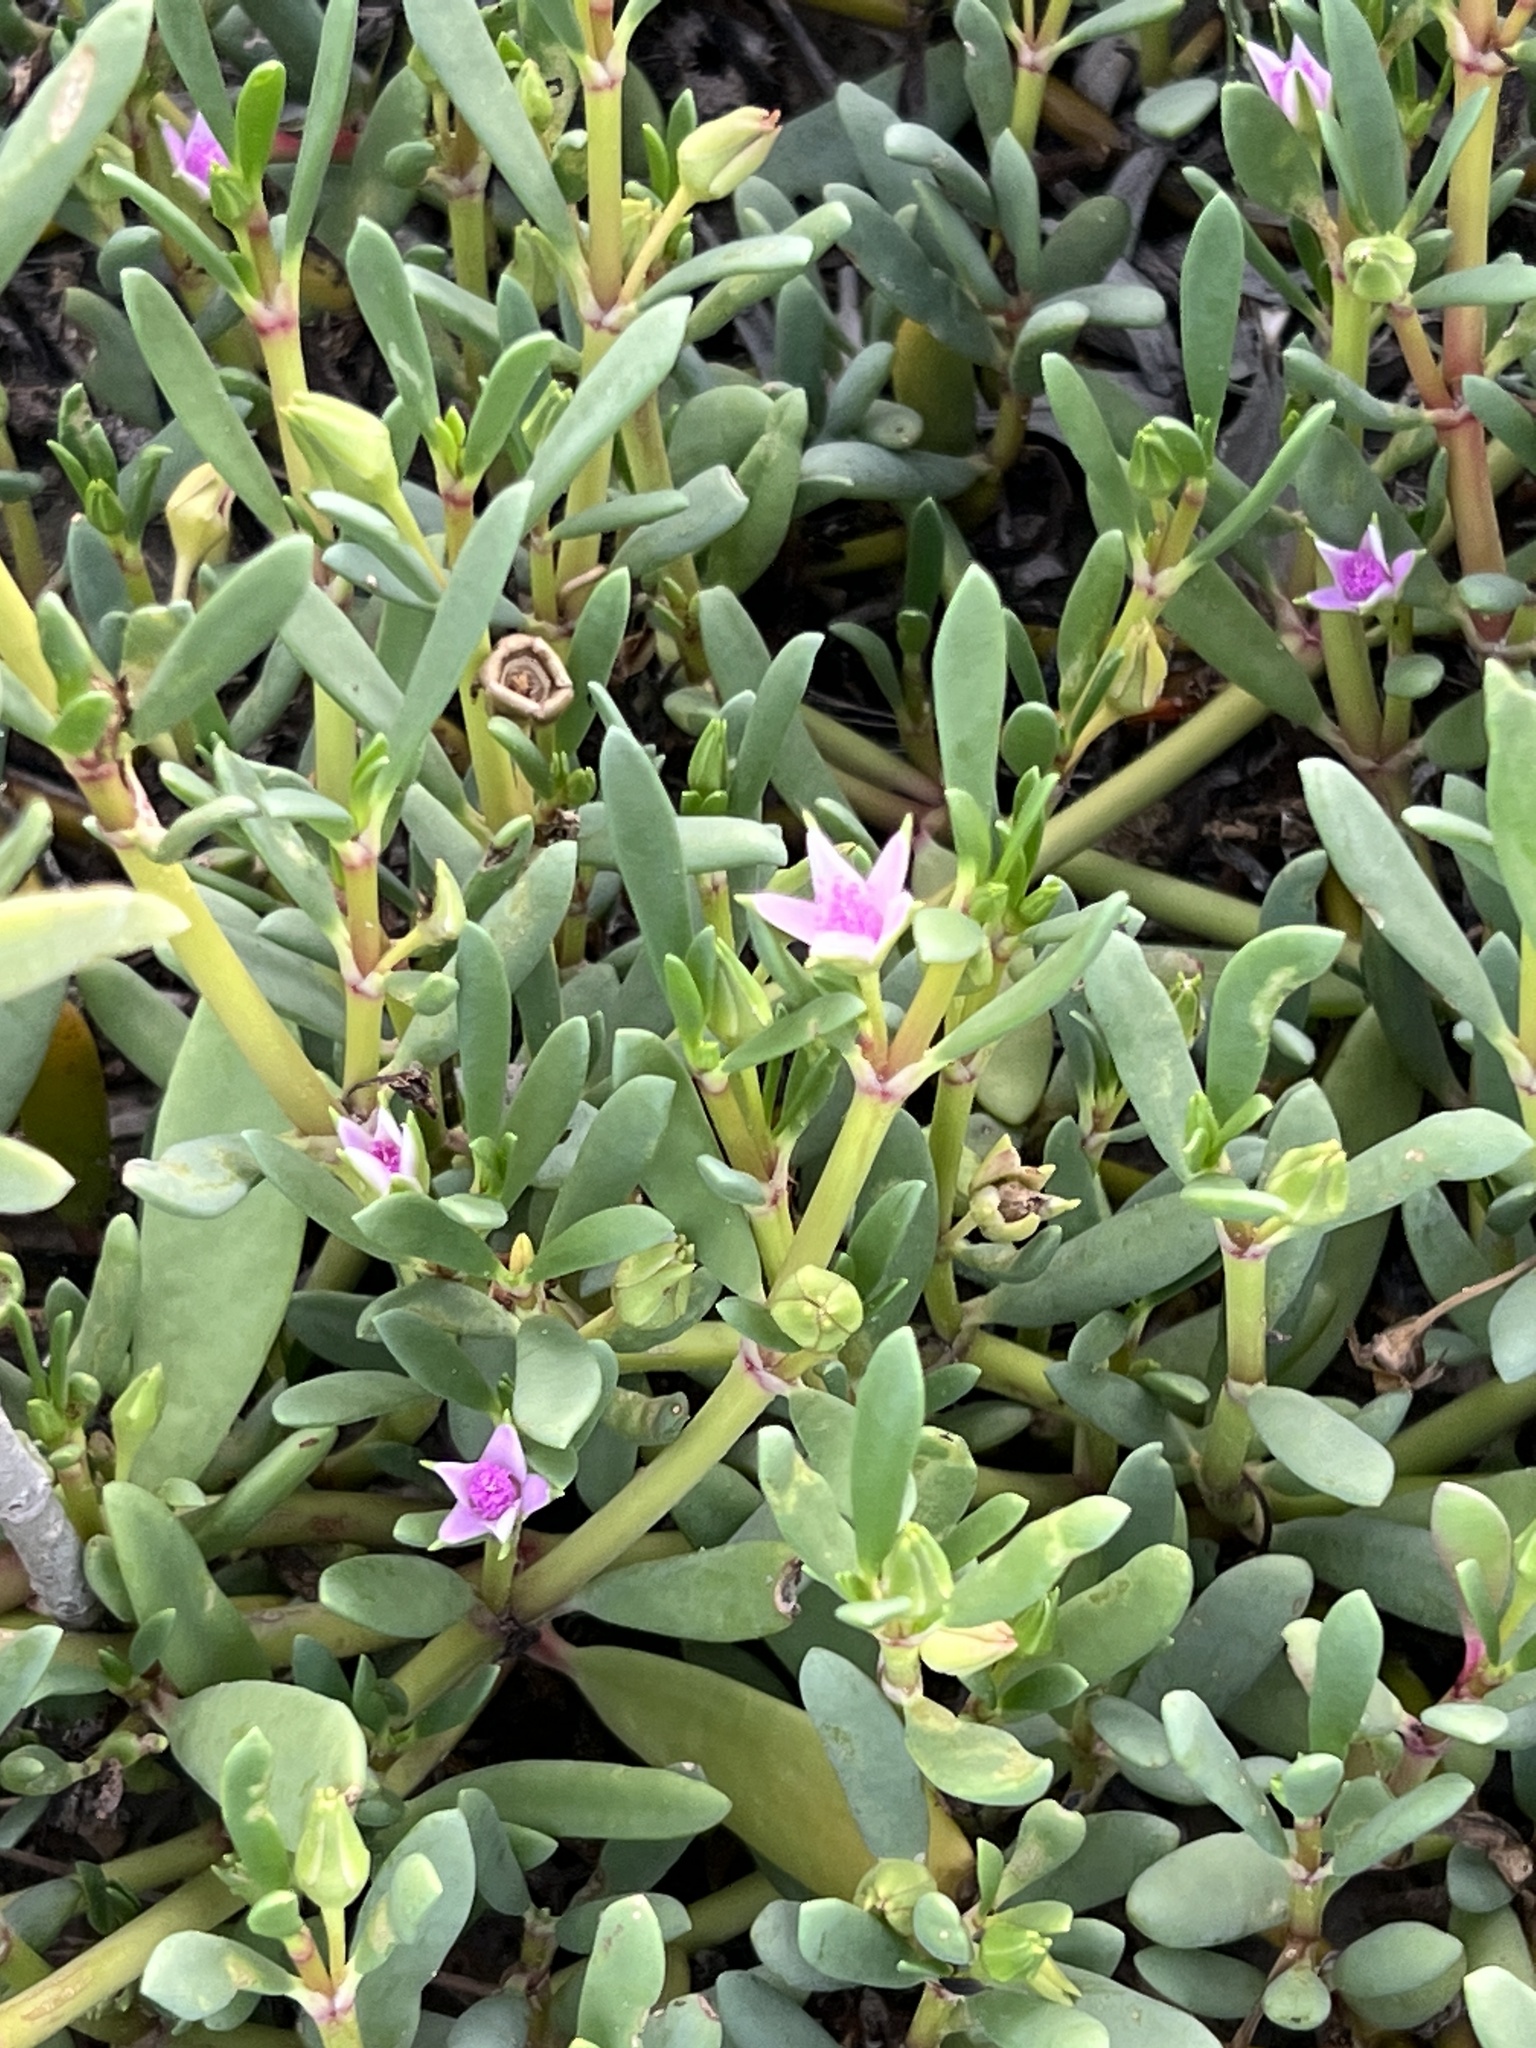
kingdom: Plantae
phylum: Tracheophyta
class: Magnoliopsida
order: Caryophyllales
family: Aizoaceae
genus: Sesuvium
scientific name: Sesuvium portulacastrum
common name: Sea-purslane
